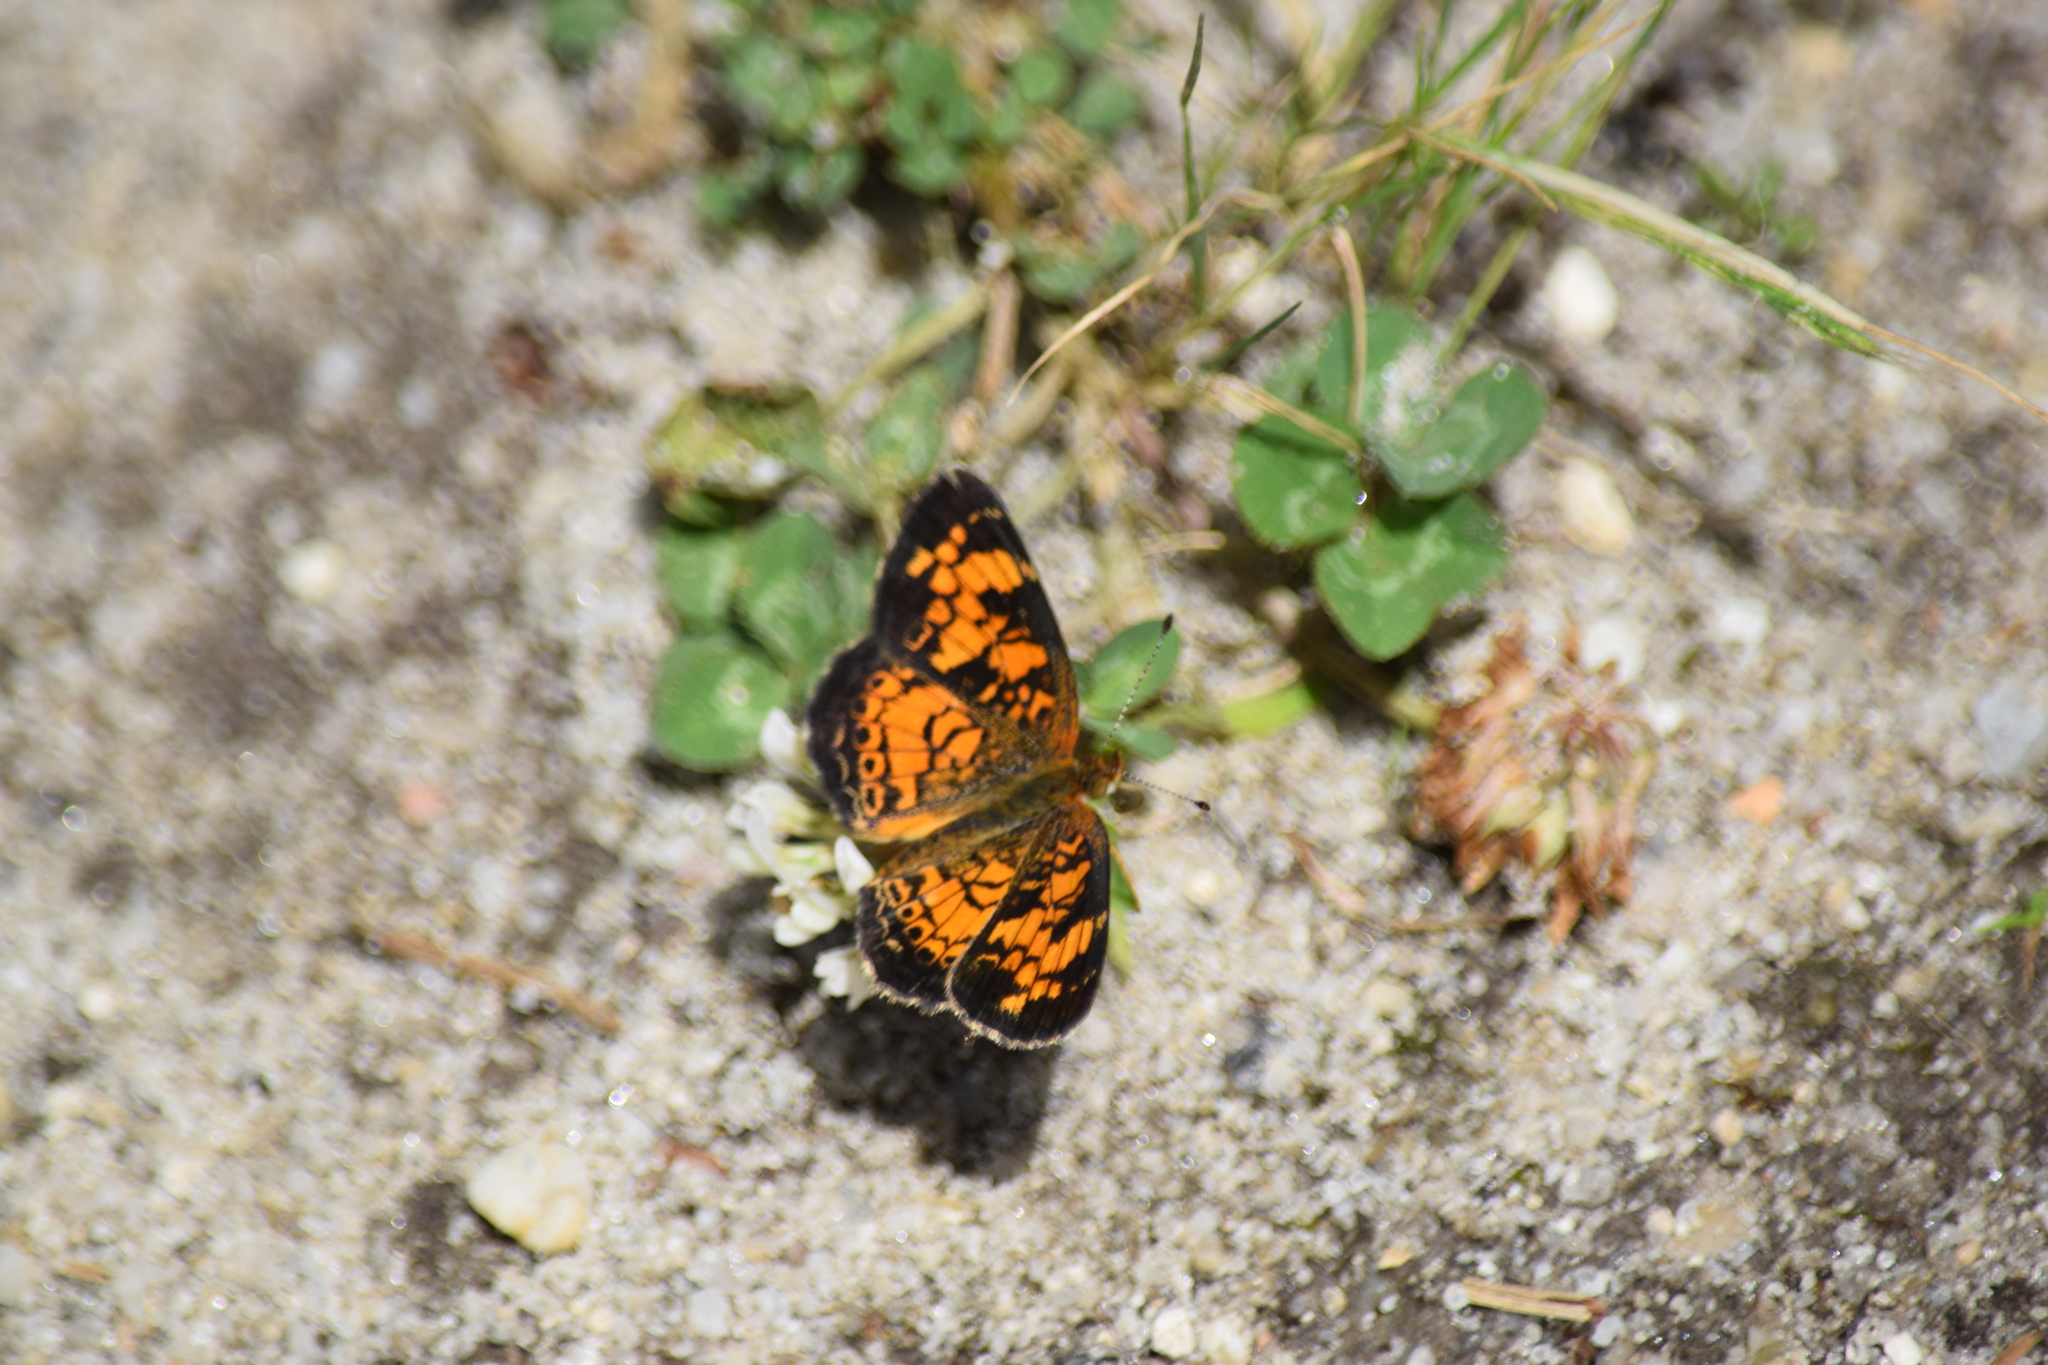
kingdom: Animalia
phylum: Arthropoda
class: Insecta
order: Lepidoptera
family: Nymphalidae
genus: Phyciodes
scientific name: Phyciodes tharos
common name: Pearl crescent
